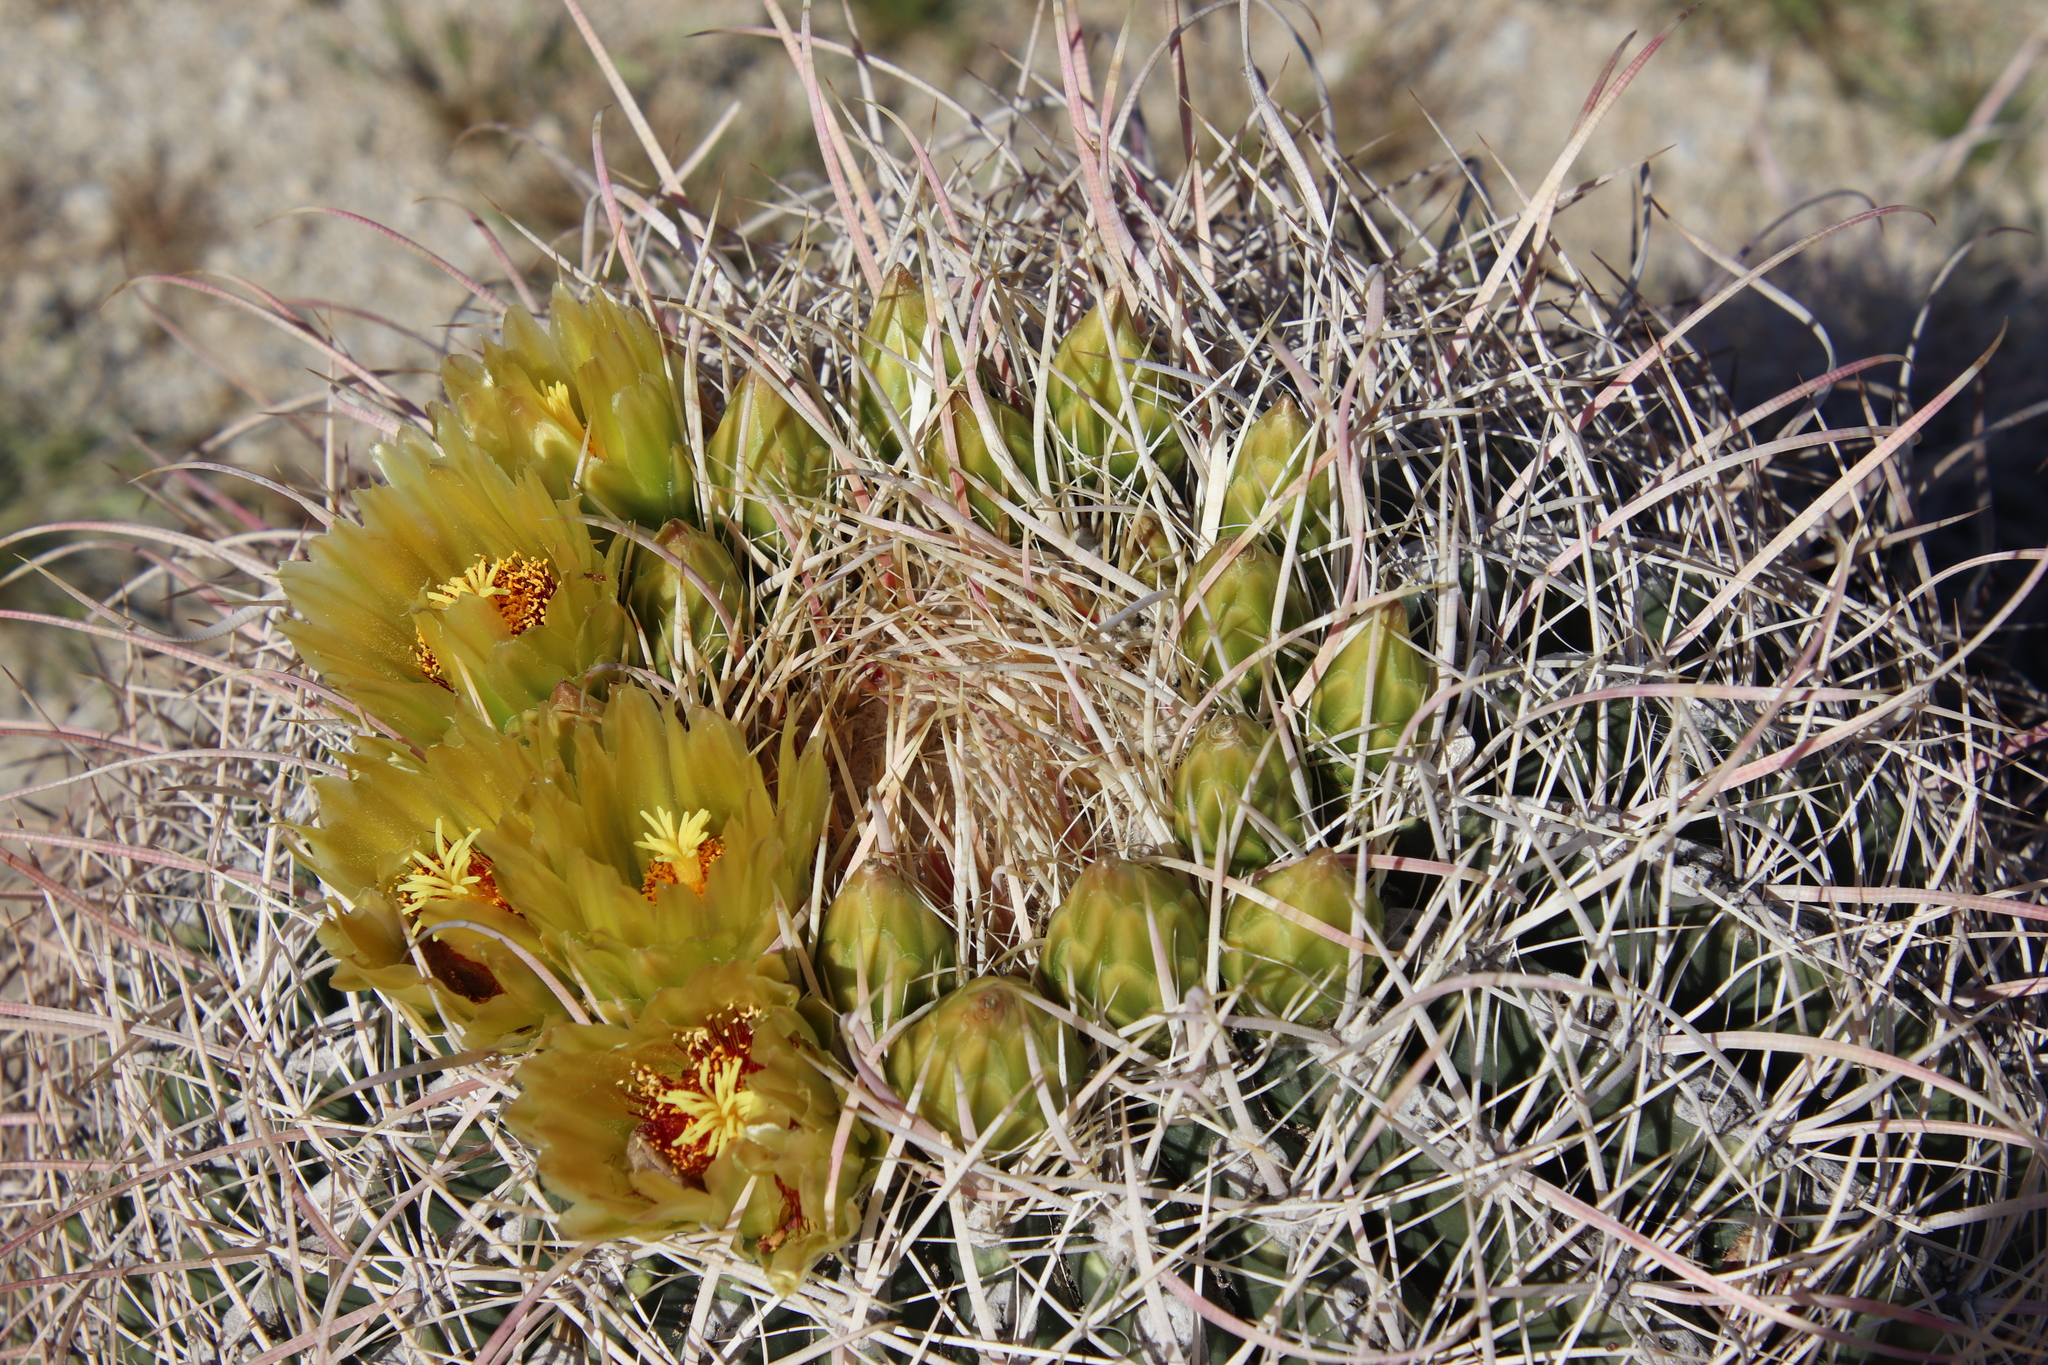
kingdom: Plantae
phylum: Tracheophyta
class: Magnoliopsida
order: Caryophyllales
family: Cactaceae
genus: Ferocactus
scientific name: Ferocactus cylindraceus
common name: California barrel cactus
